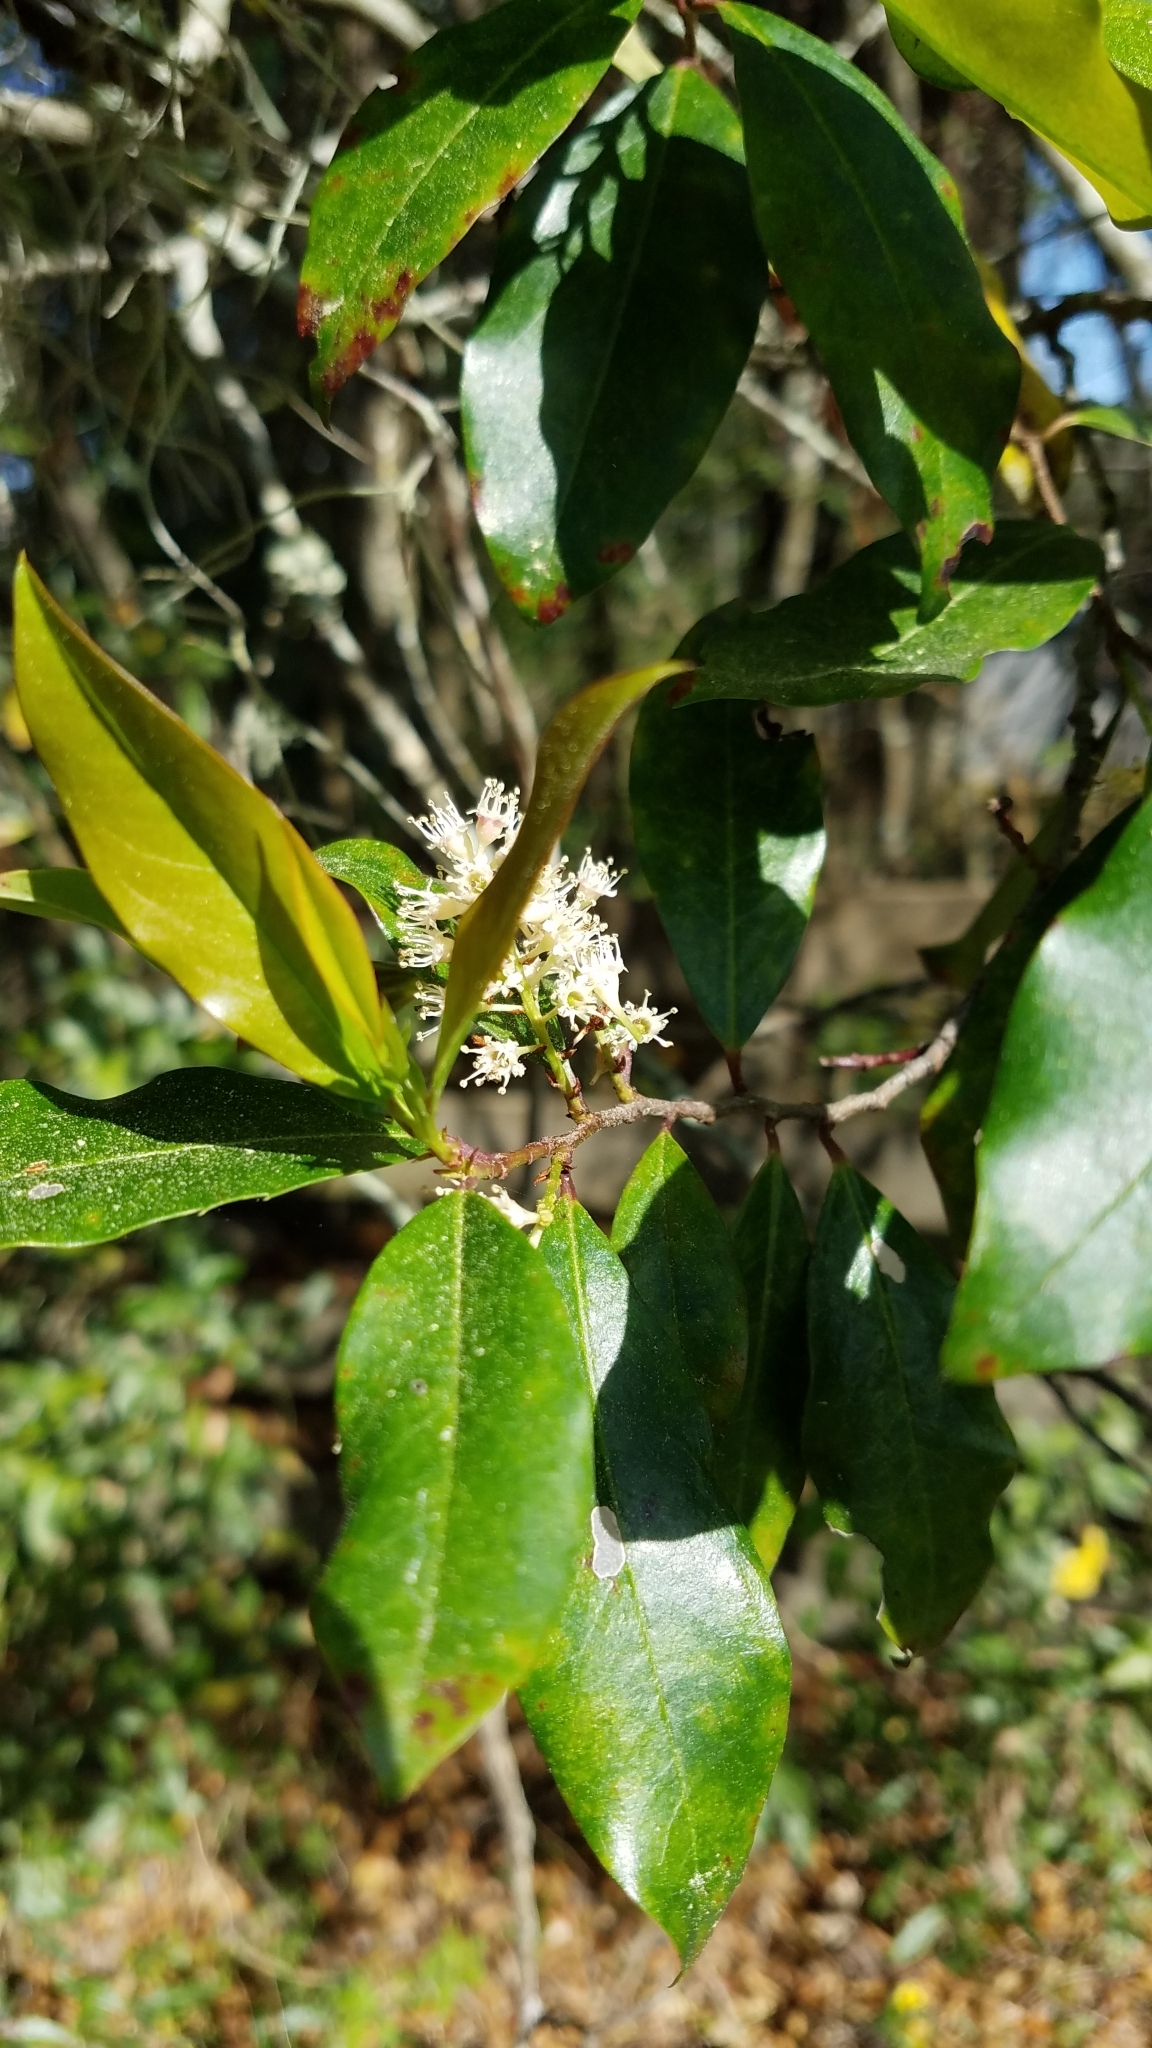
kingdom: Plantae
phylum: Tracheophyta
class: Magnoliopsida
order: Rosales
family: Rosaceae
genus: Prunus
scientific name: Prunus caroliniana
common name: Carolina laurel cherry
